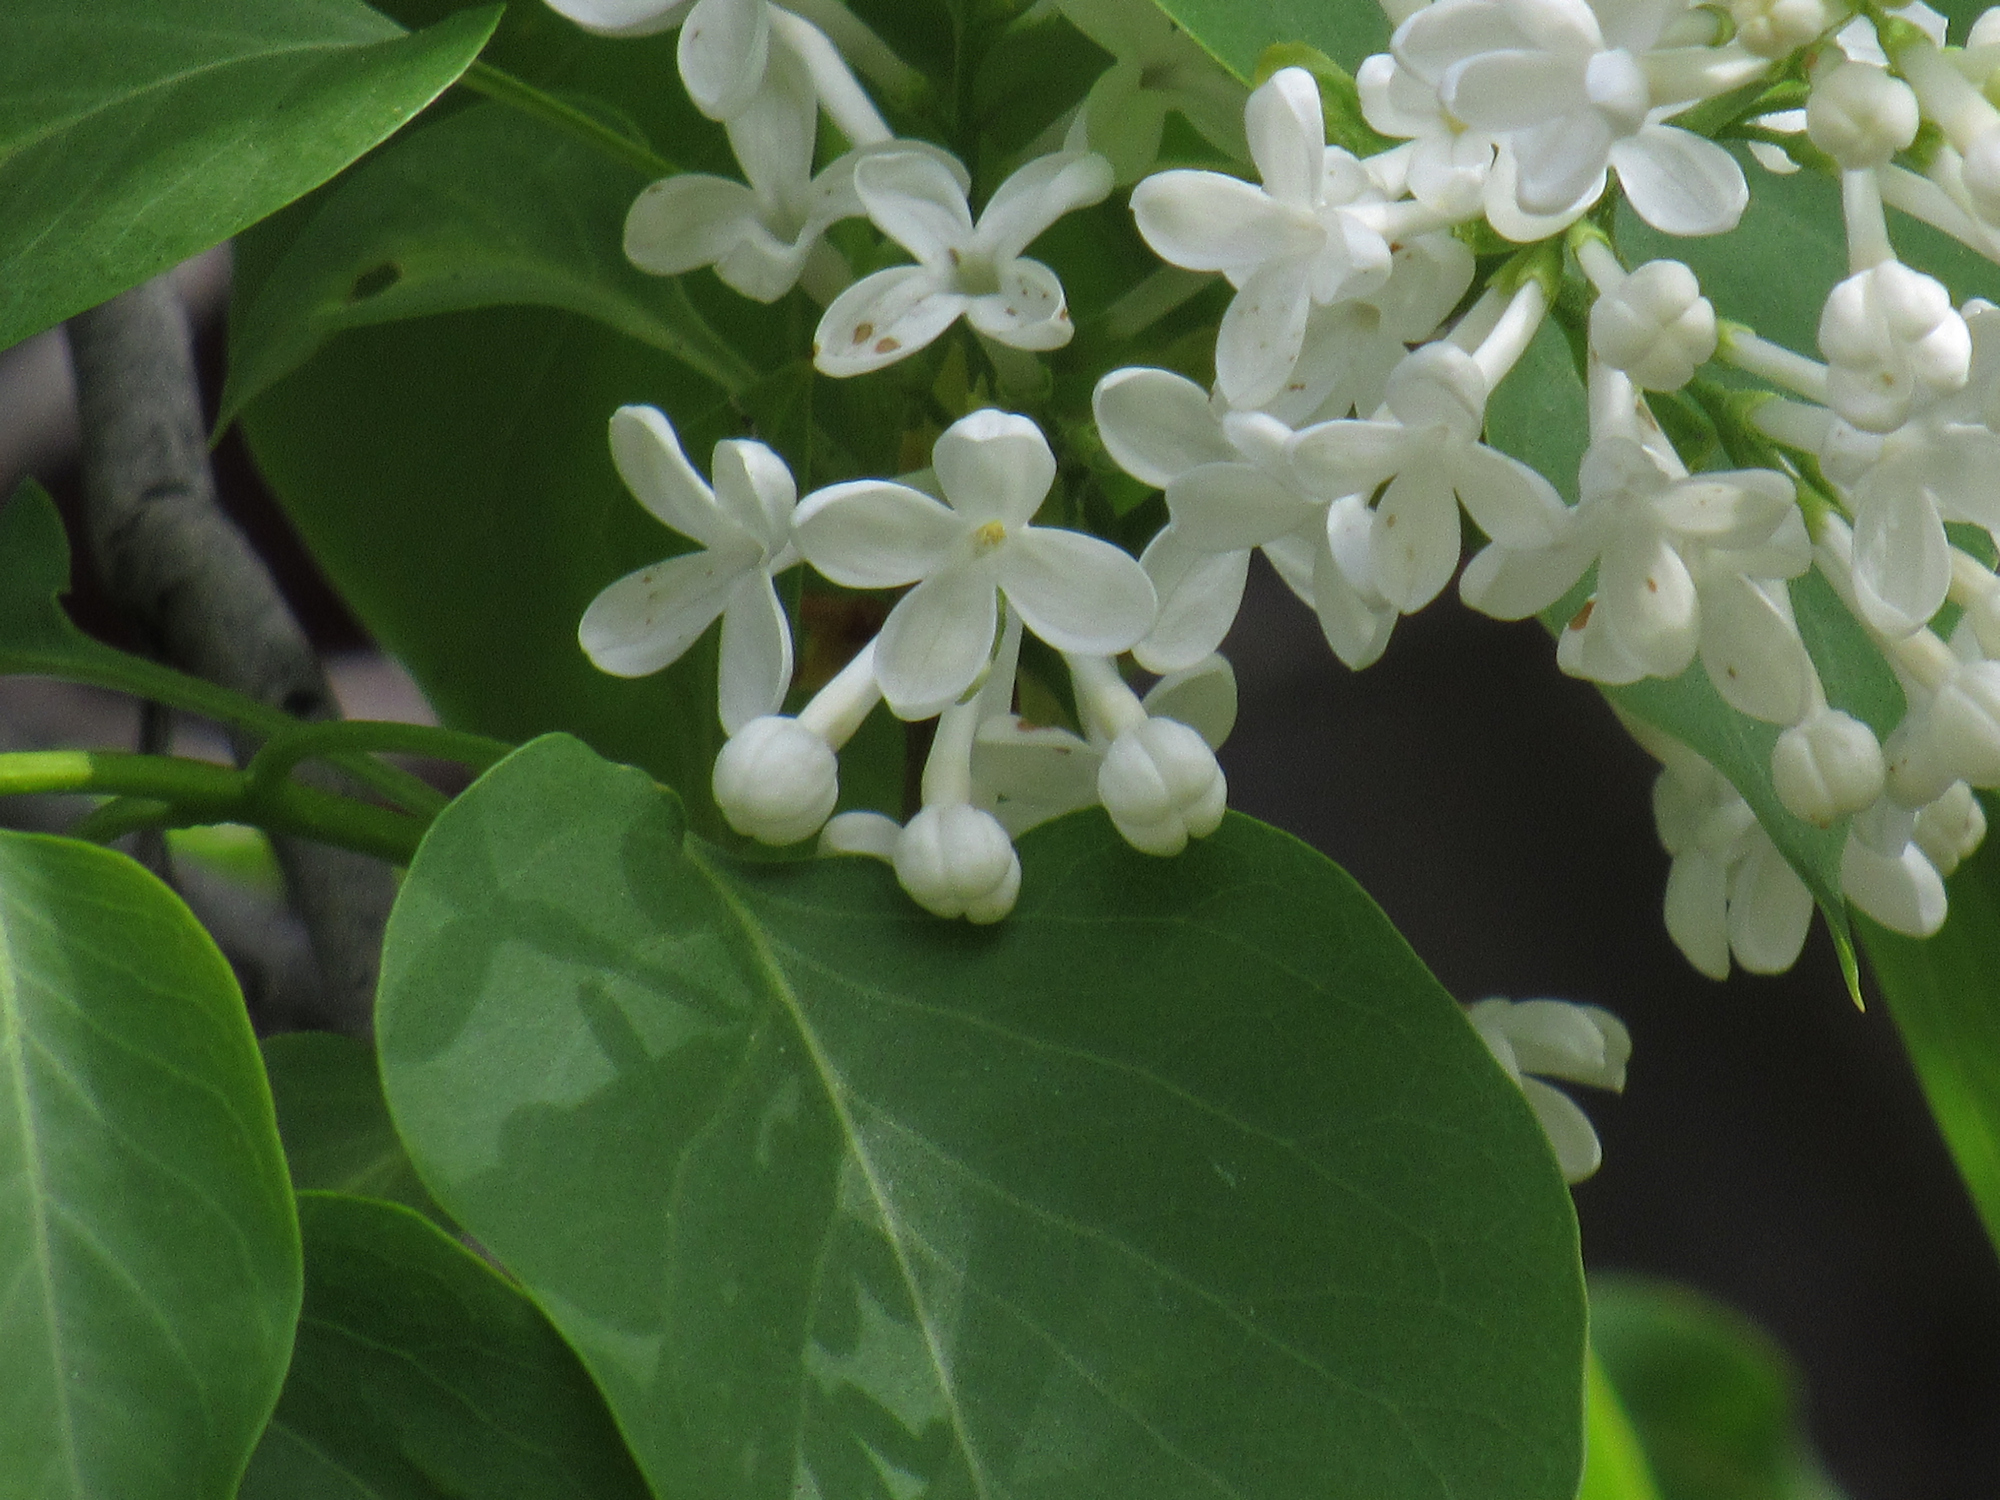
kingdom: Plantae
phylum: Tracheophyta
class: Magnoliopsida
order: Lamiales
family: Oleaceae
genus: Syringa
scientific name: Syringa vulgaris
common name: Common lilac
